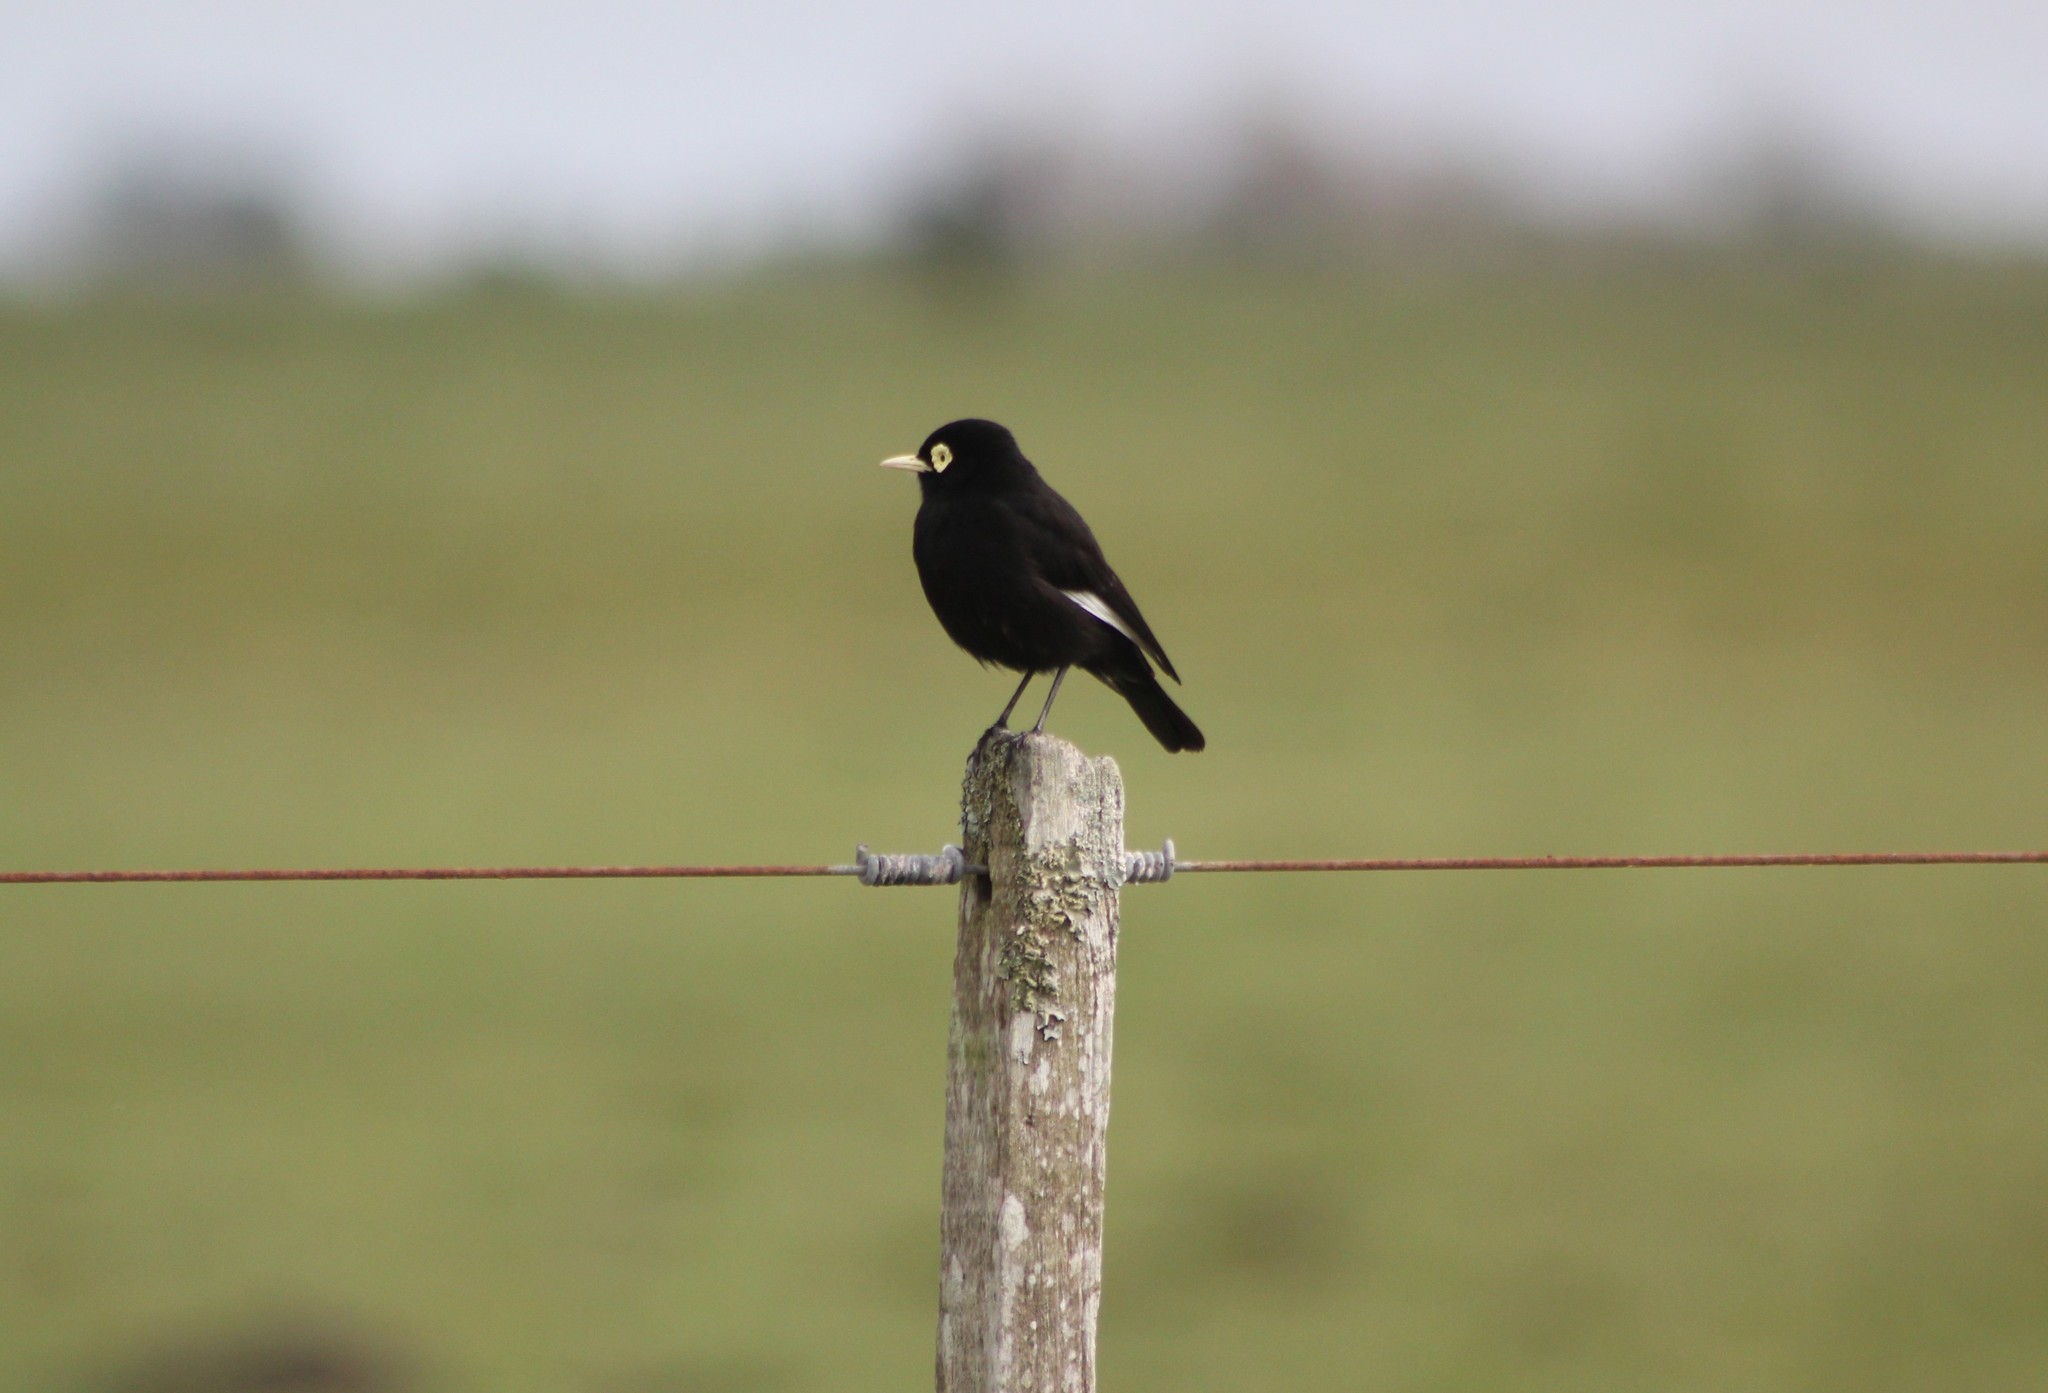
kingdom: Animalia
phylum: Chordata
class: Aves
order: Passeriformes
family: Tyrannidae
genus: Hymenops
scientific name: Hymenops perspicillatus
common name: Spectacled tyrant
